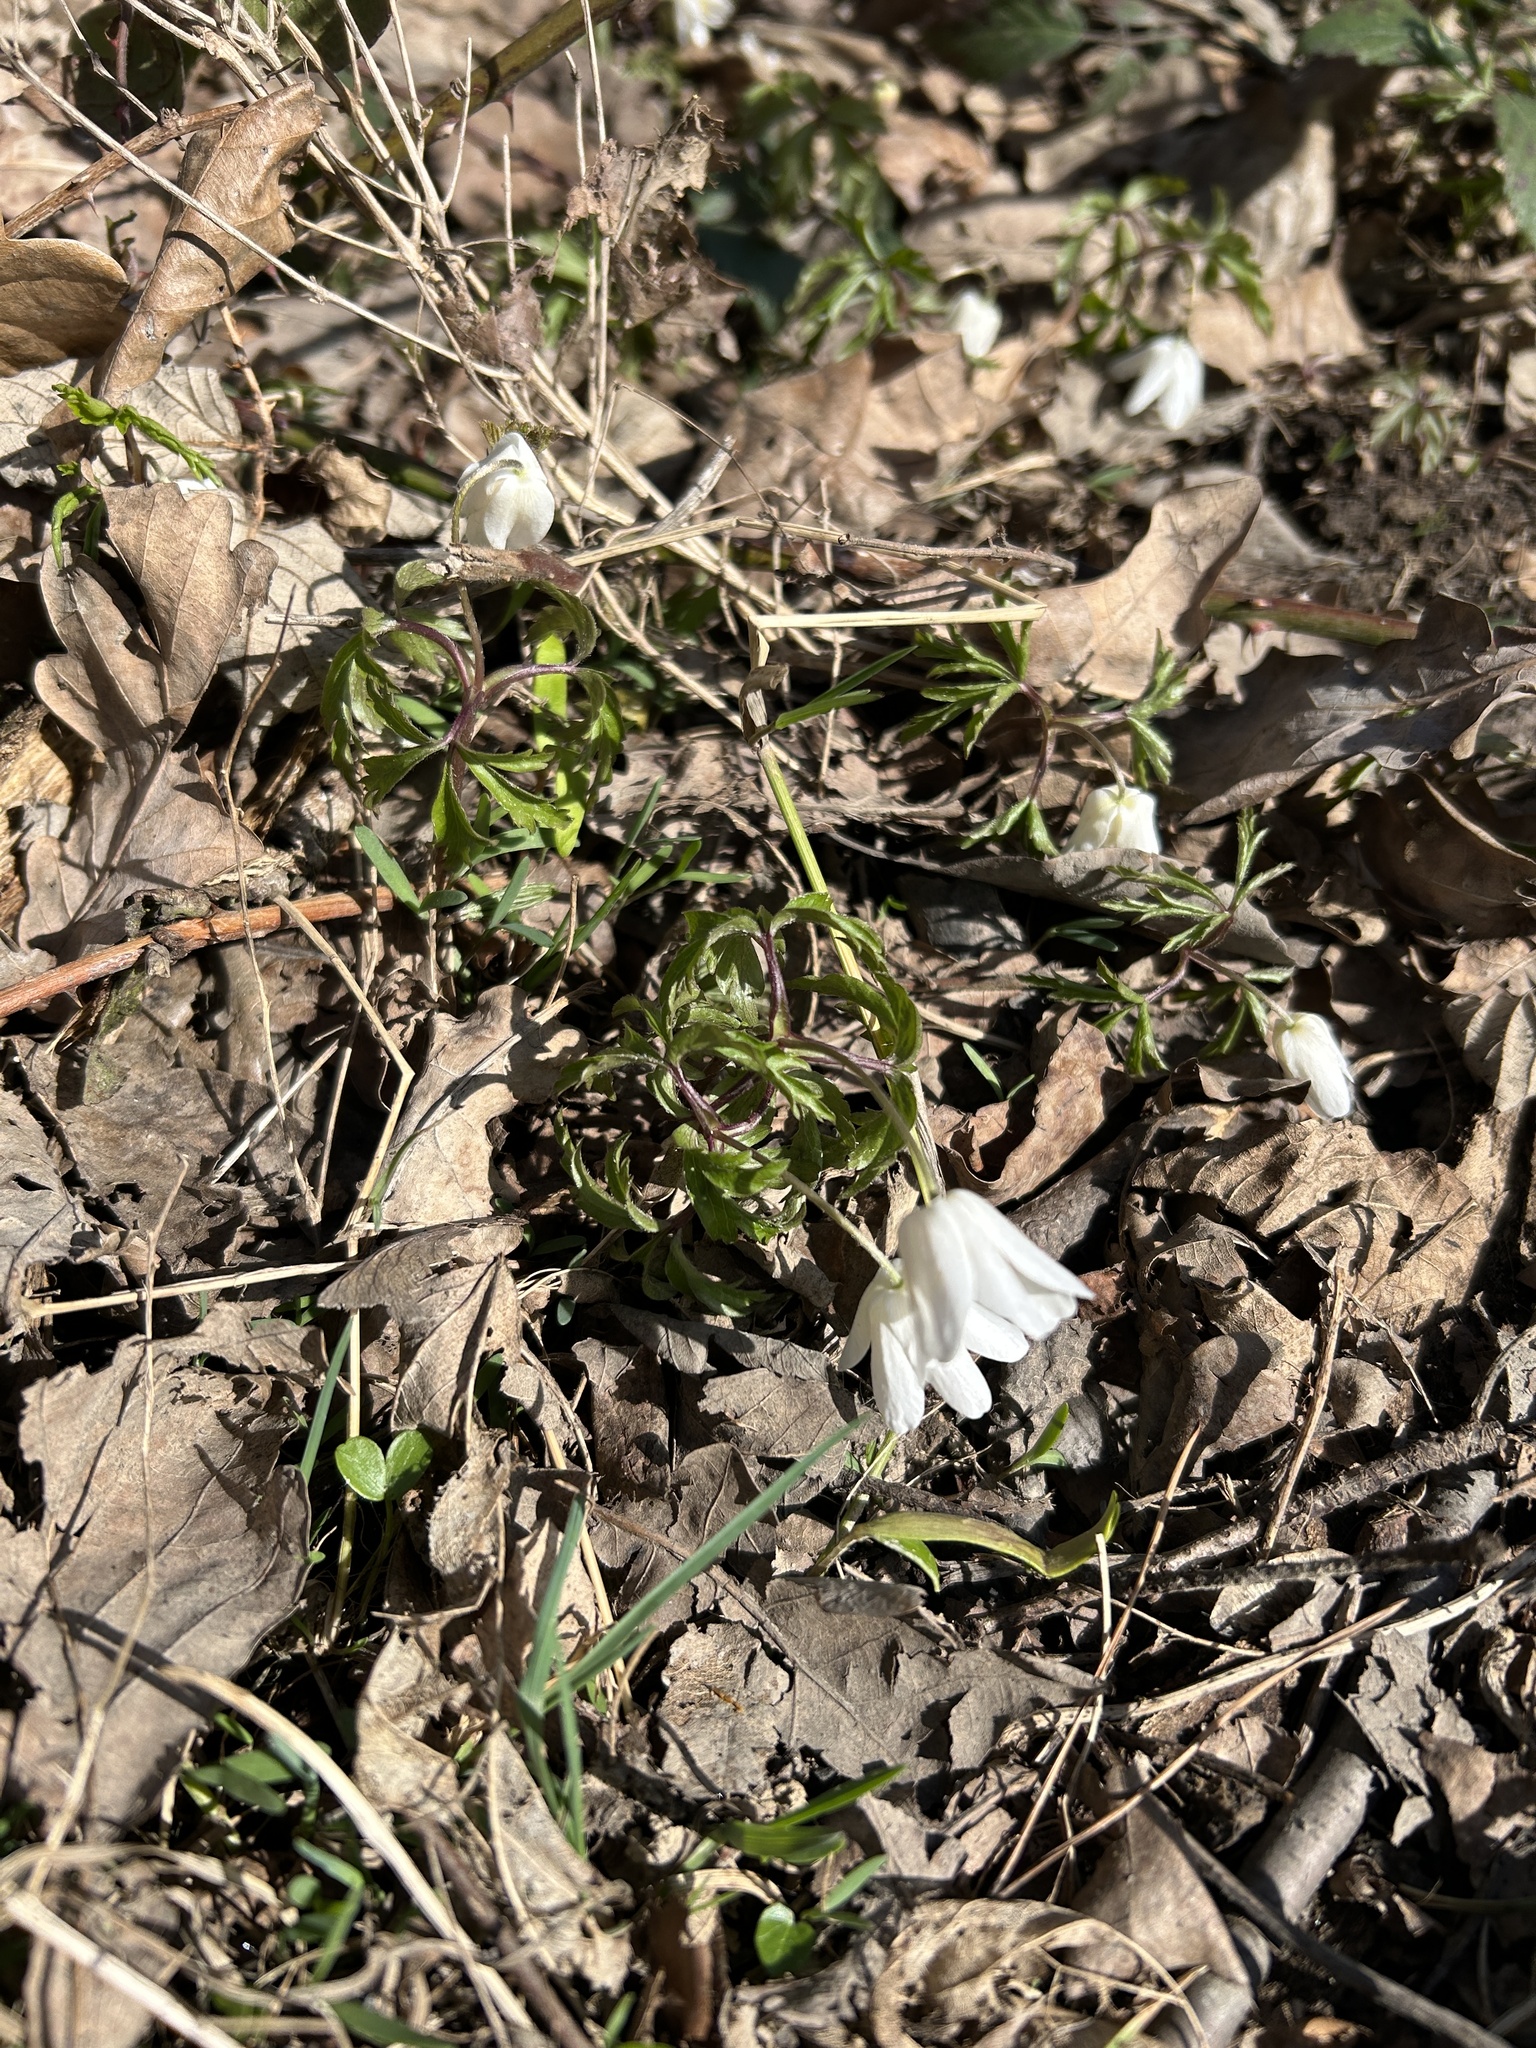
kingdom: Plantae
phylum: Tracheophyta
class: Magnoliopsida
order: Ranunculales
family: Ranunculaceae
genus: Anemone
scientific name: Anemone nemorosa
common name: Wood anemone
